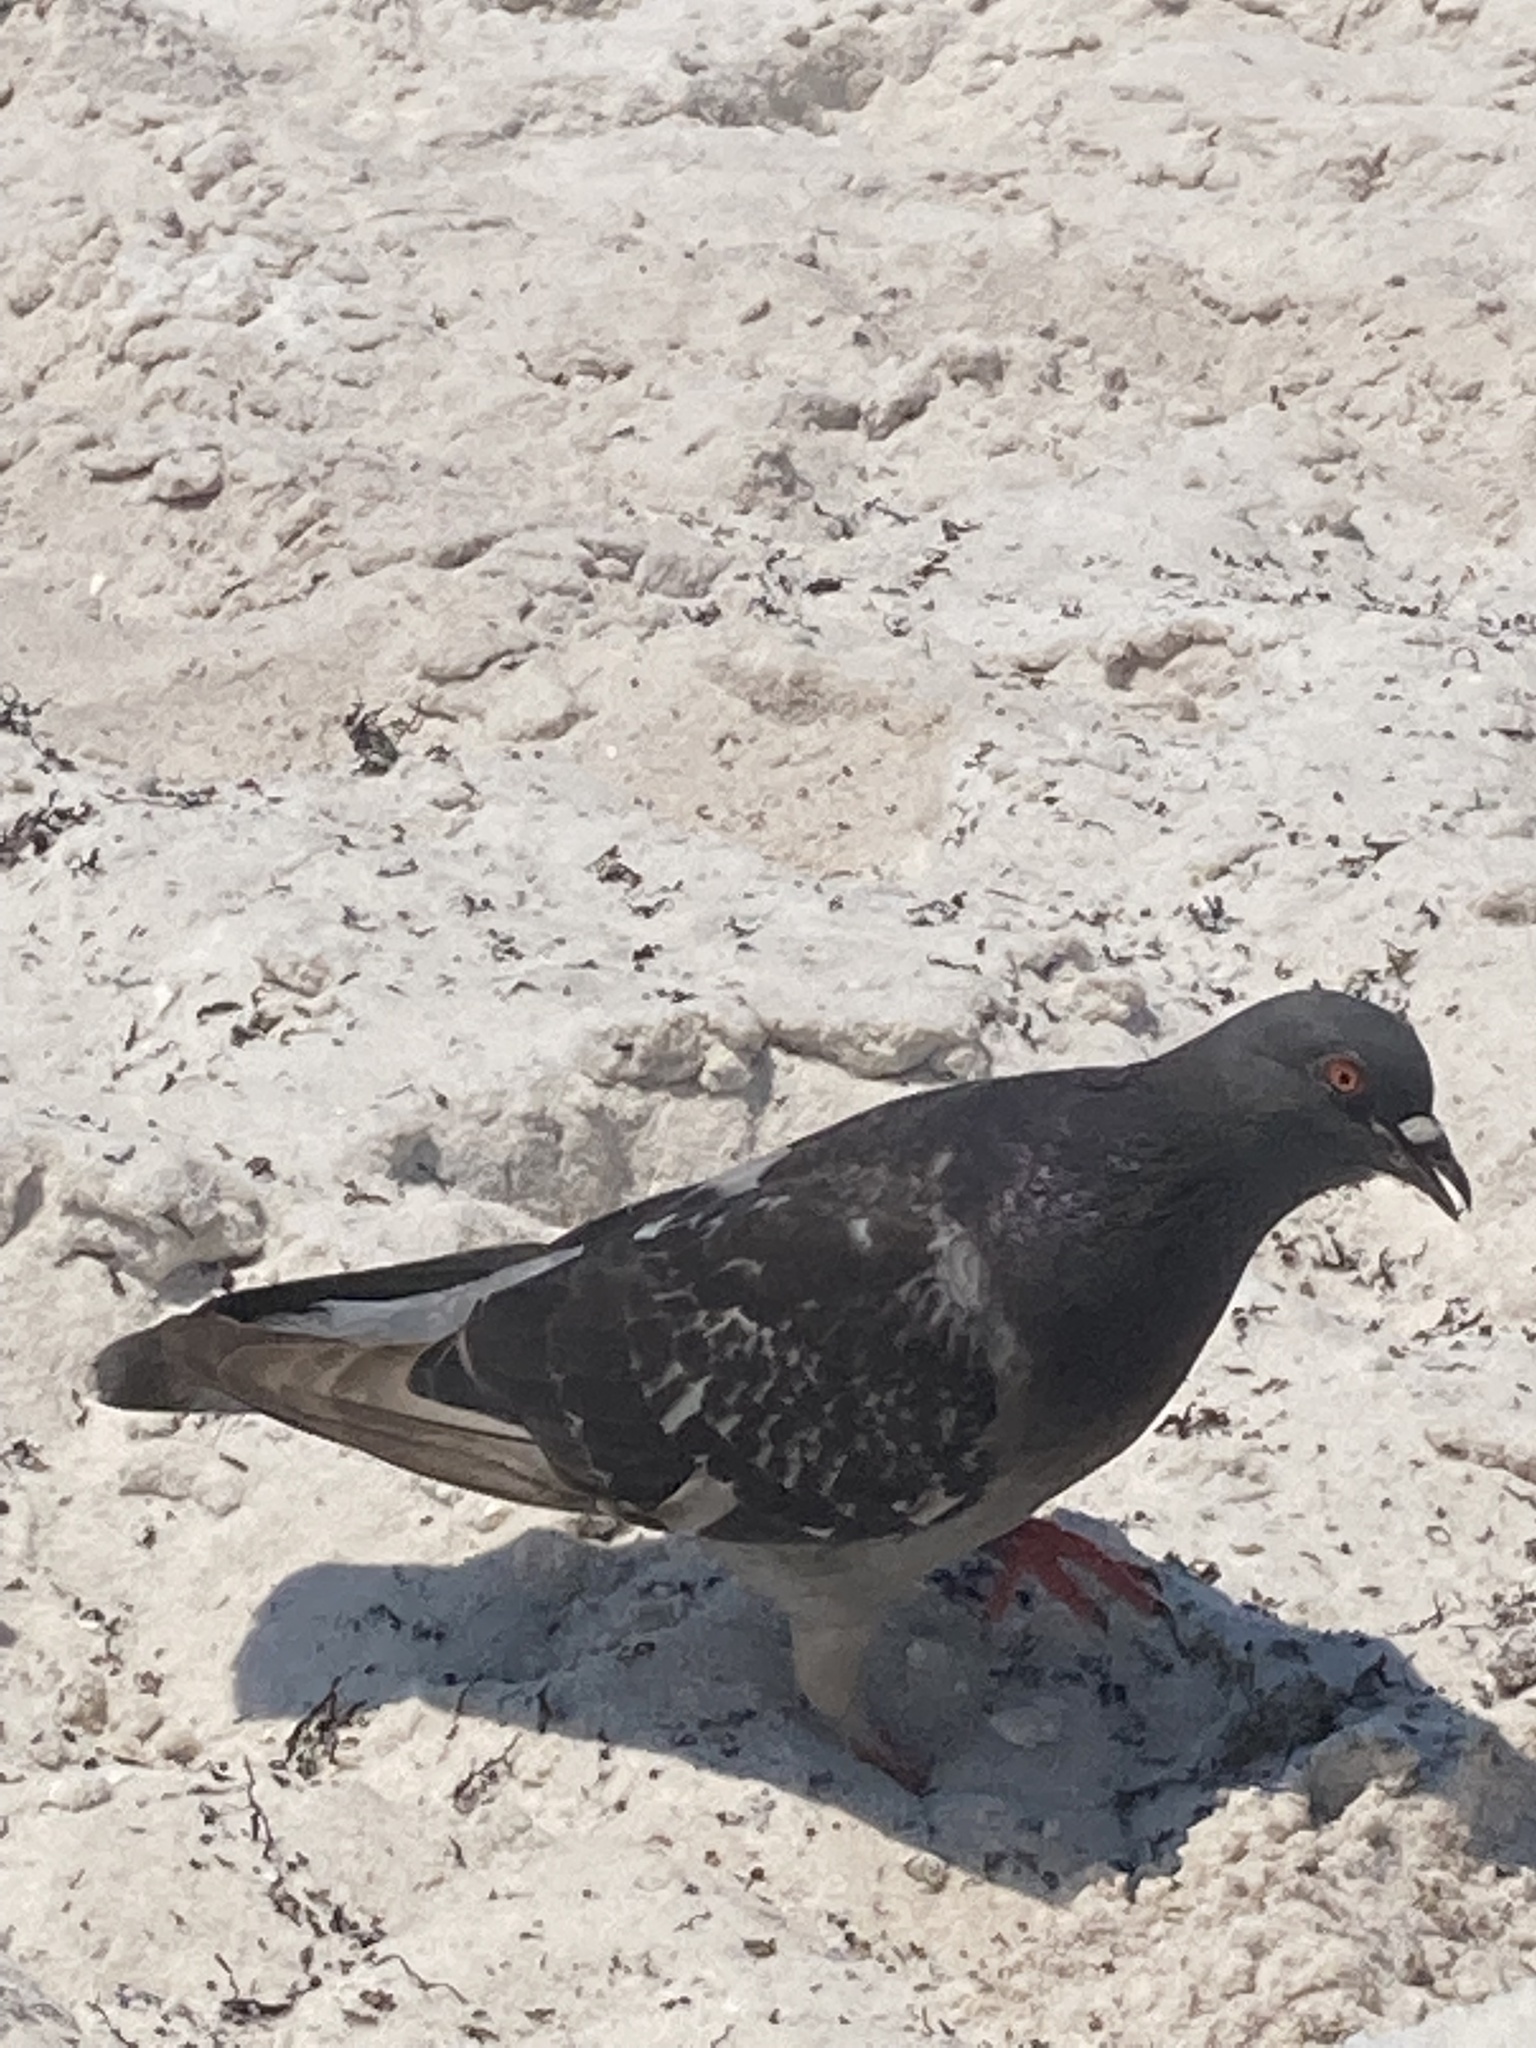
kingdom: Animalia
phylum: Chordata
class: Aves
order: Columbiformes
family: Columbidae
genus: Columba
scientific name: Columba livia
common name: Rock pigeon
